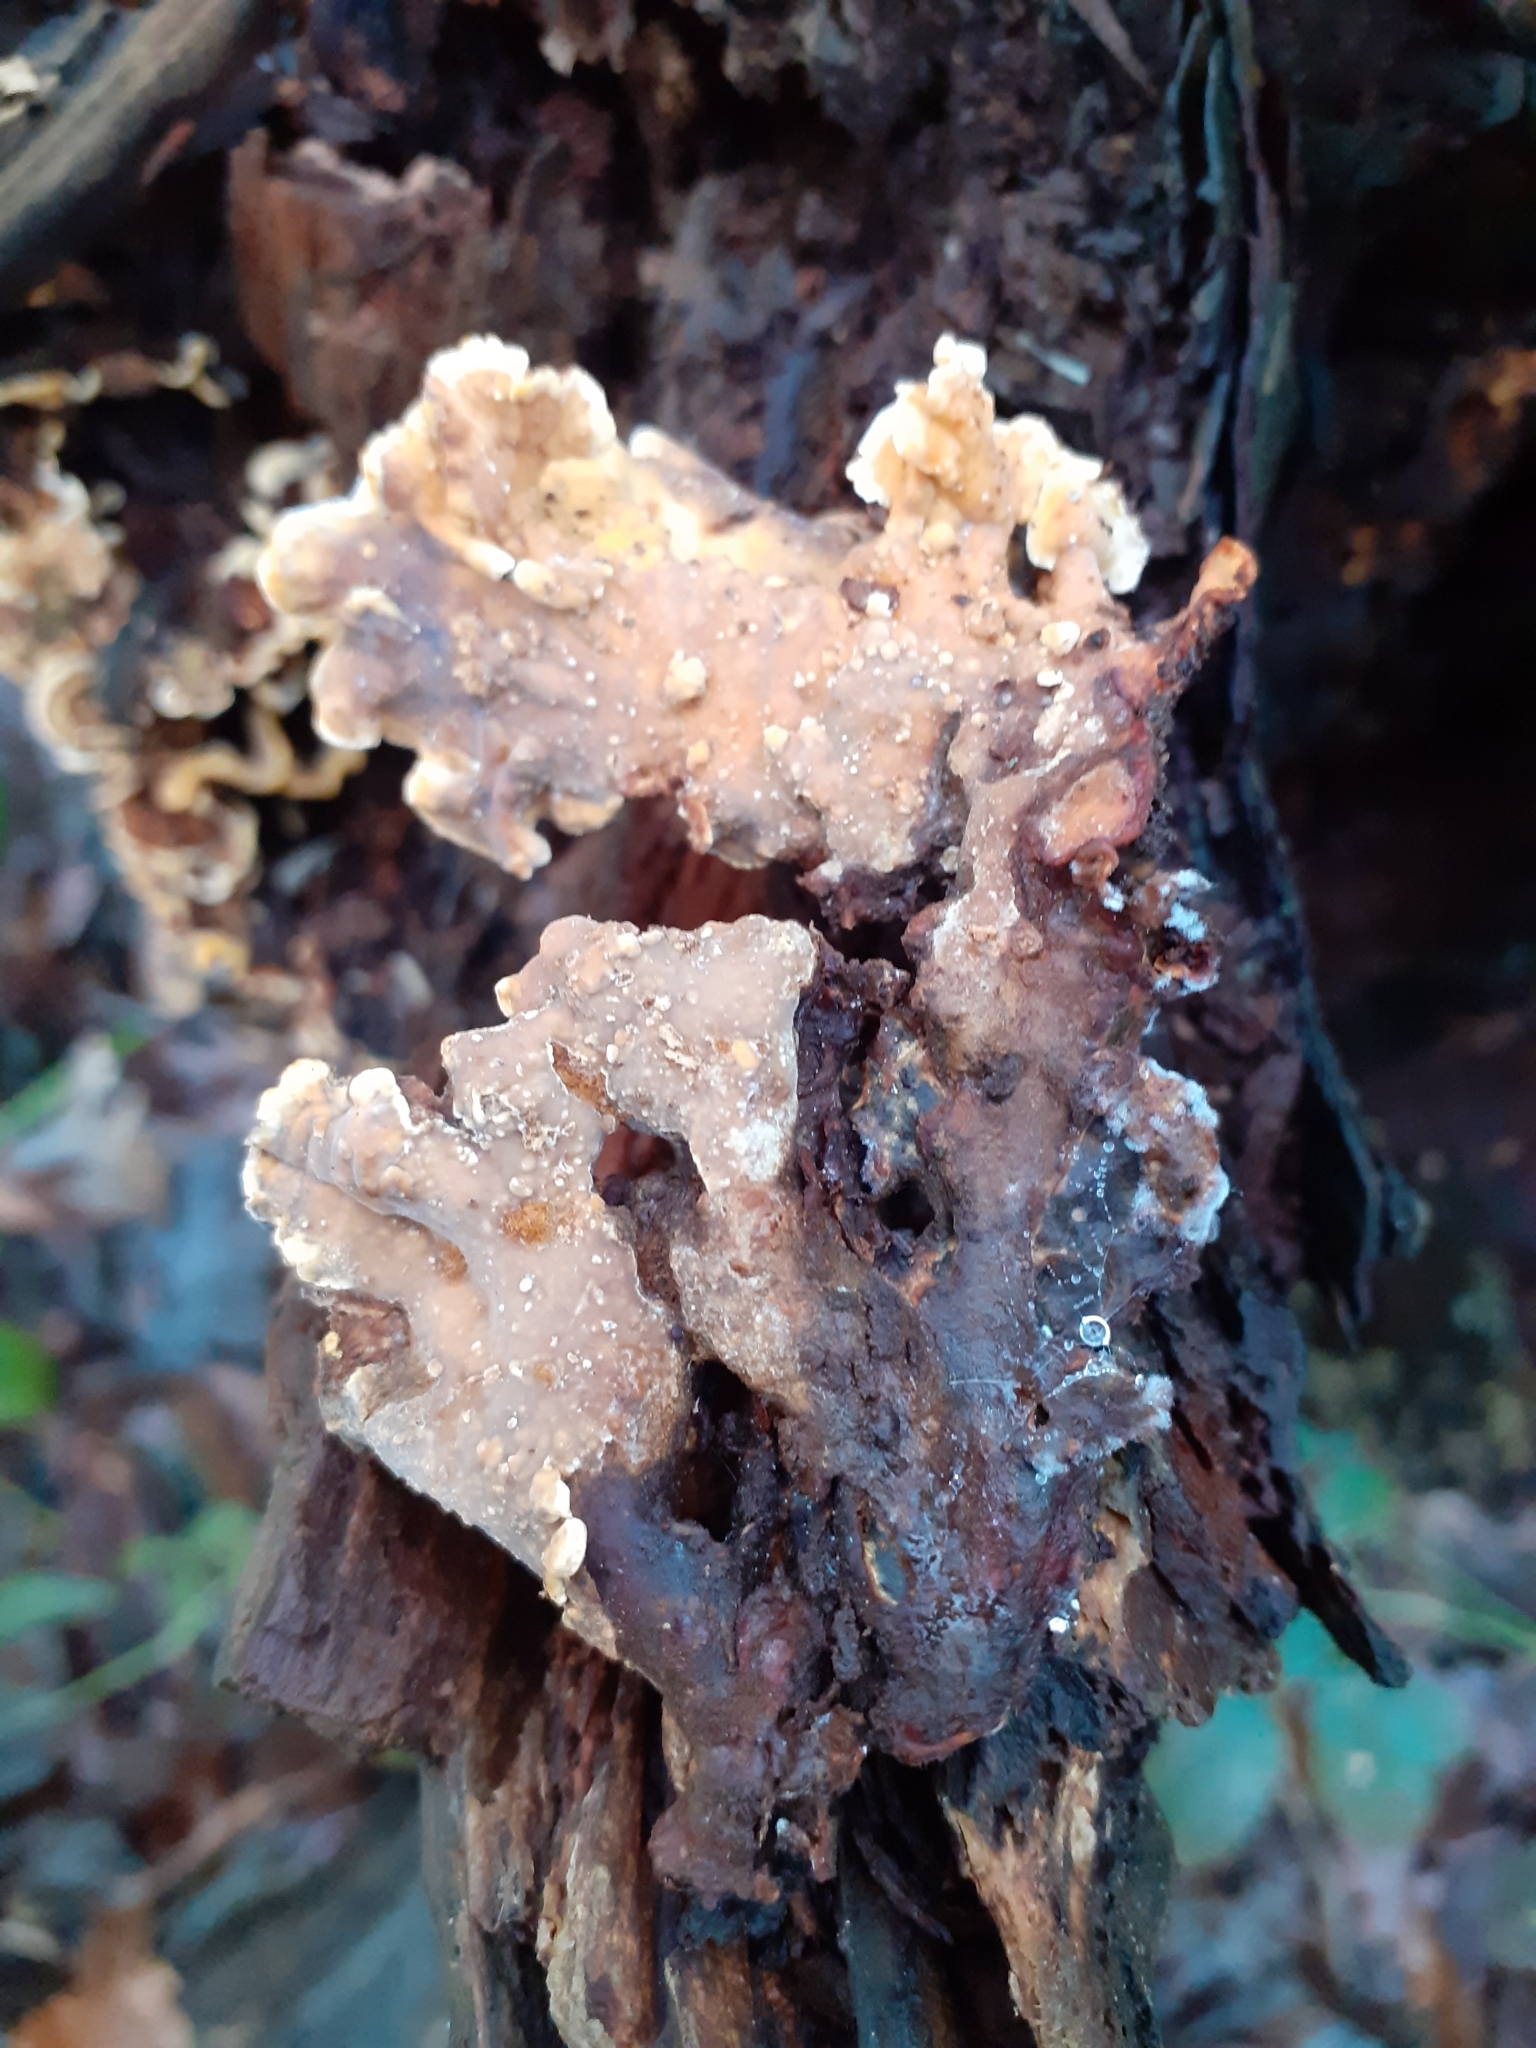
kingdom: Fungi
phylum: Basidiomycota
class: Agaricomycetes
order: Russulales
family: Stereaceae
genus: Stereum
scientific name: Stereum hirsutum
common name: Hairy curtain crust
